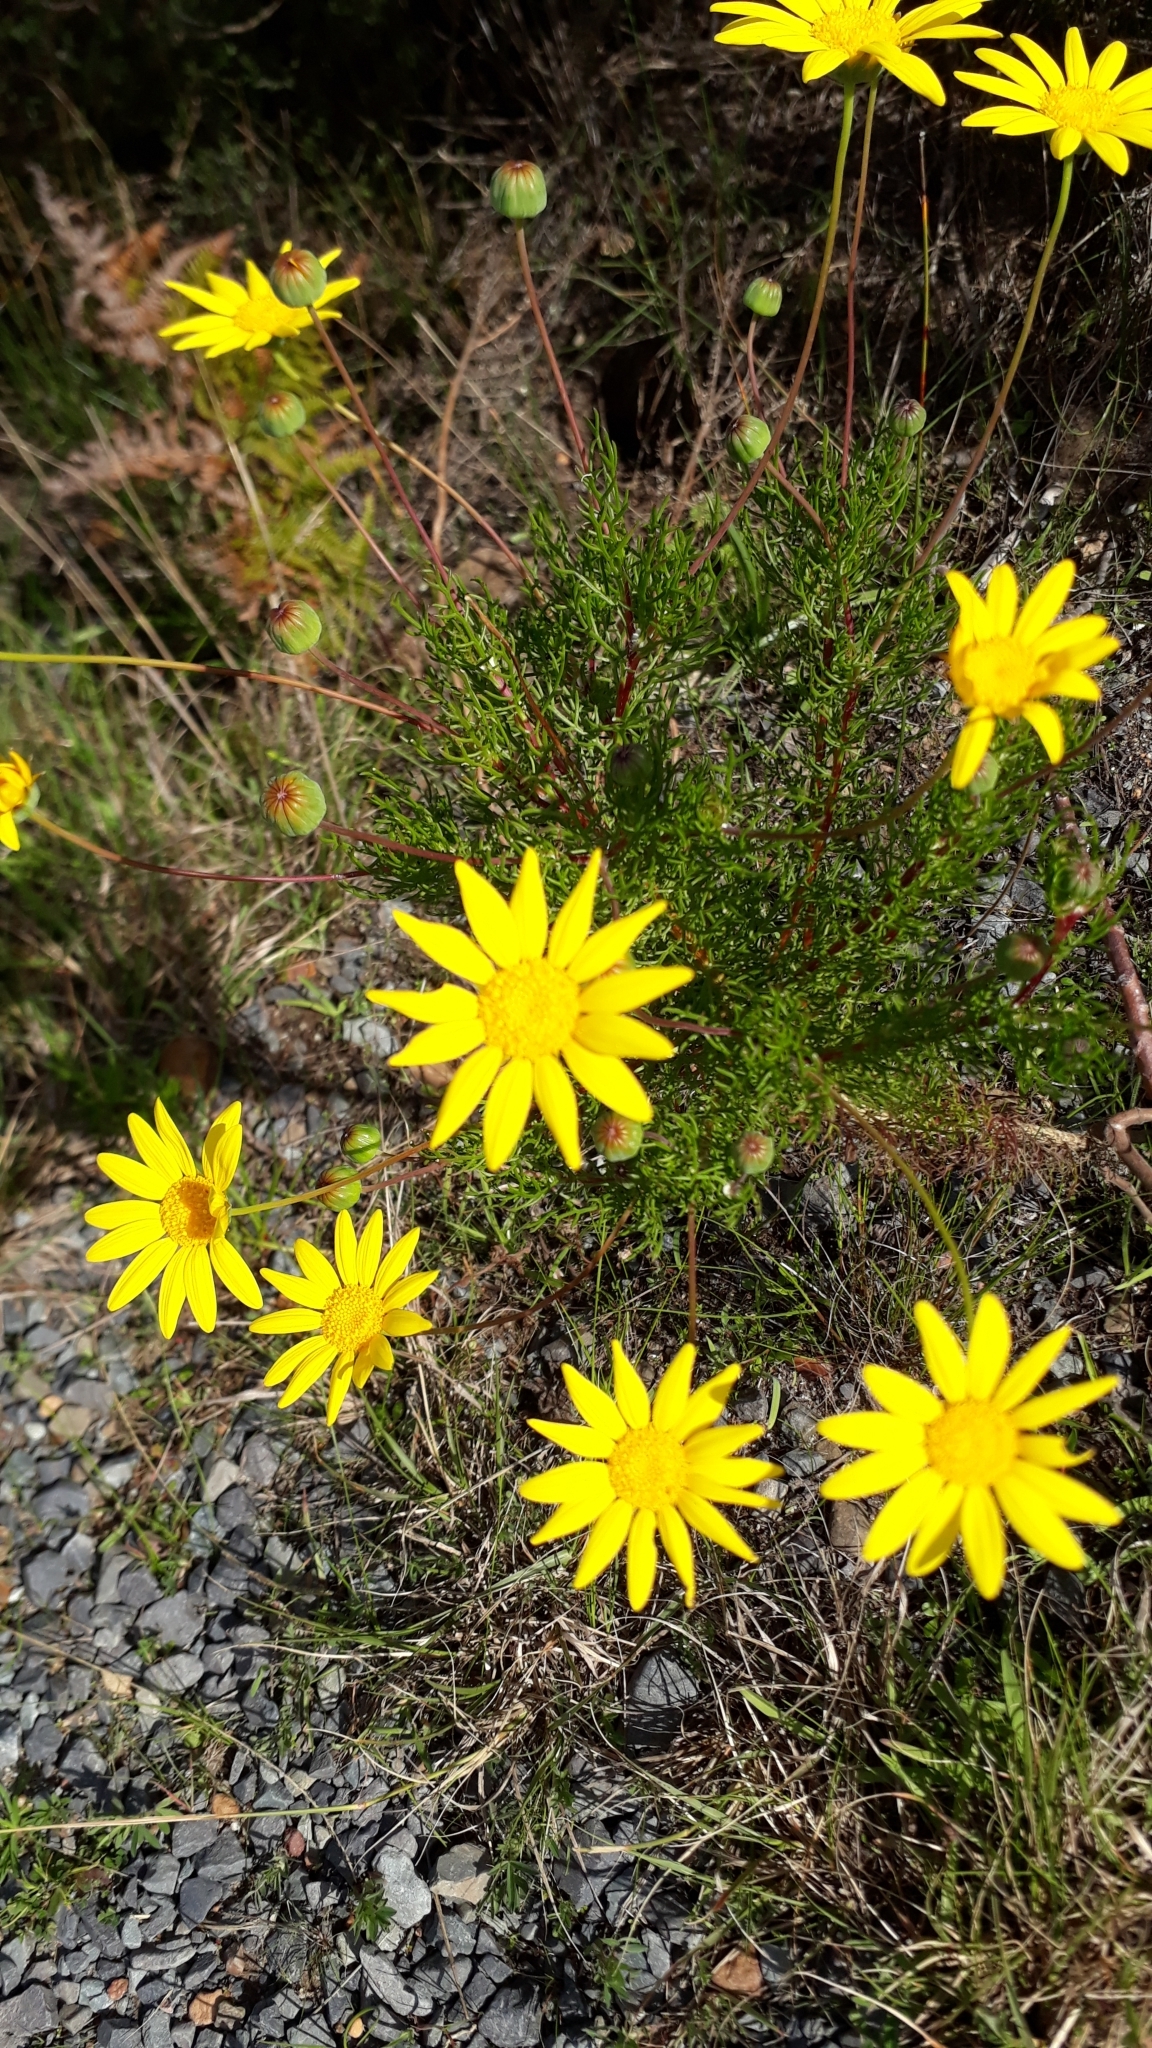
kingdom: Plantae
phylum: Tracheophyta
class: Magnoliopsida
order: Asterales
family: Asteraceae
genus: Euryops
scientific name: Euryops abrotanifolius
